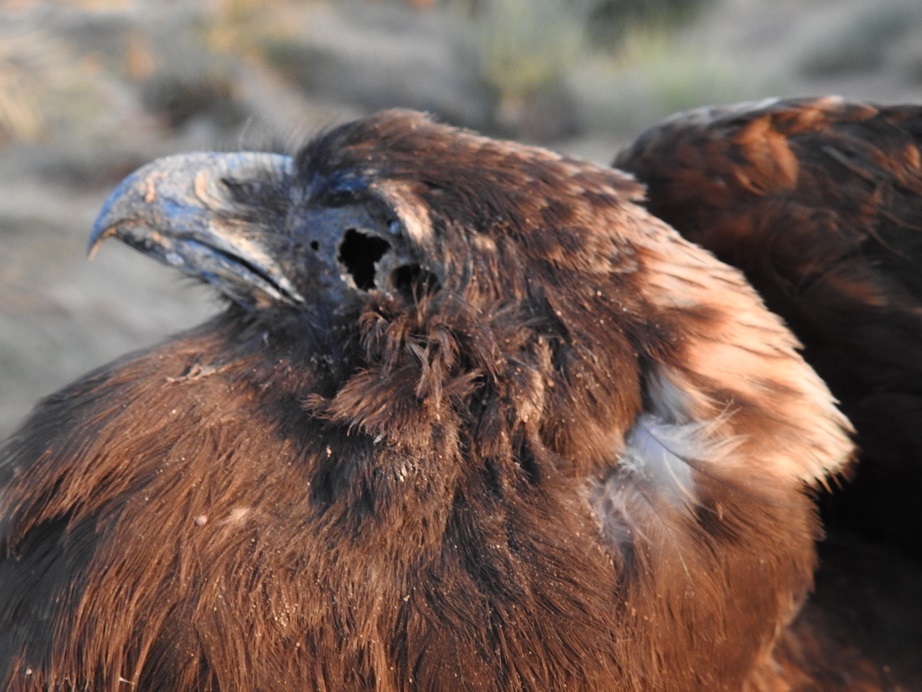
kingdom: Animalia
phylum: Chordata
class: Aves
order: Accipitriformes
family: Accipitridae
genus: Circus
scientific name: Circus aeruginosus
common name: Western marsh harrier
